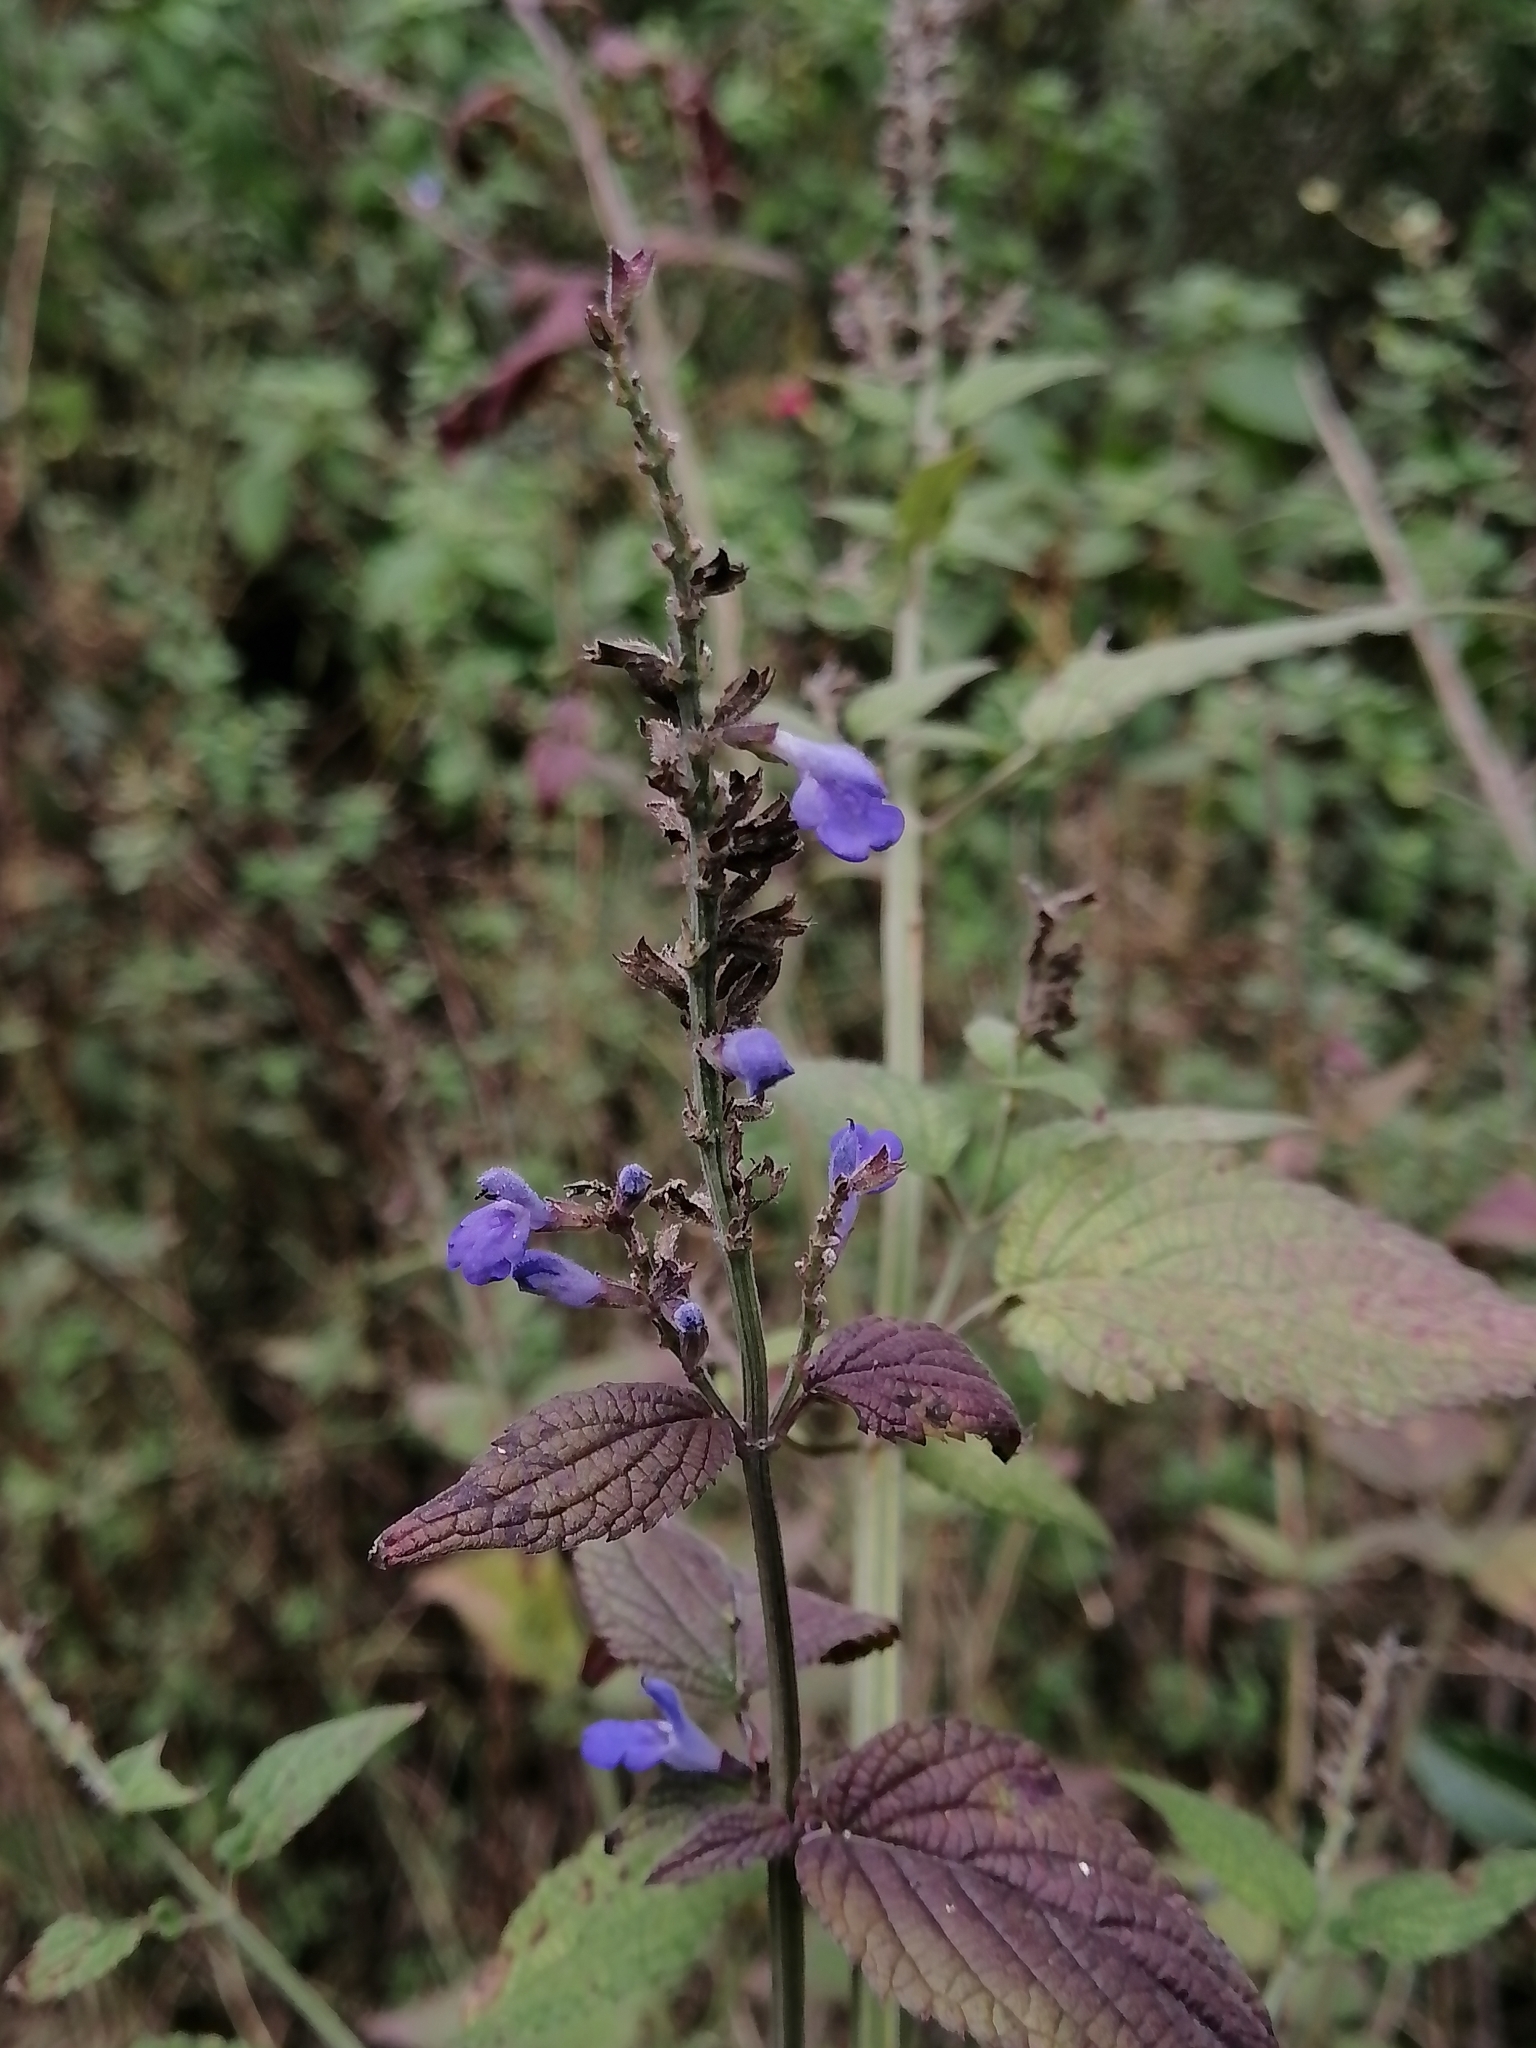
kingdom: Plantae
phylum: Tracheophyta
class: Magnoliopsida
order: Lamiales
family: Lamiaceae
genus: Salvia
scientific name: Salvia polystachia
